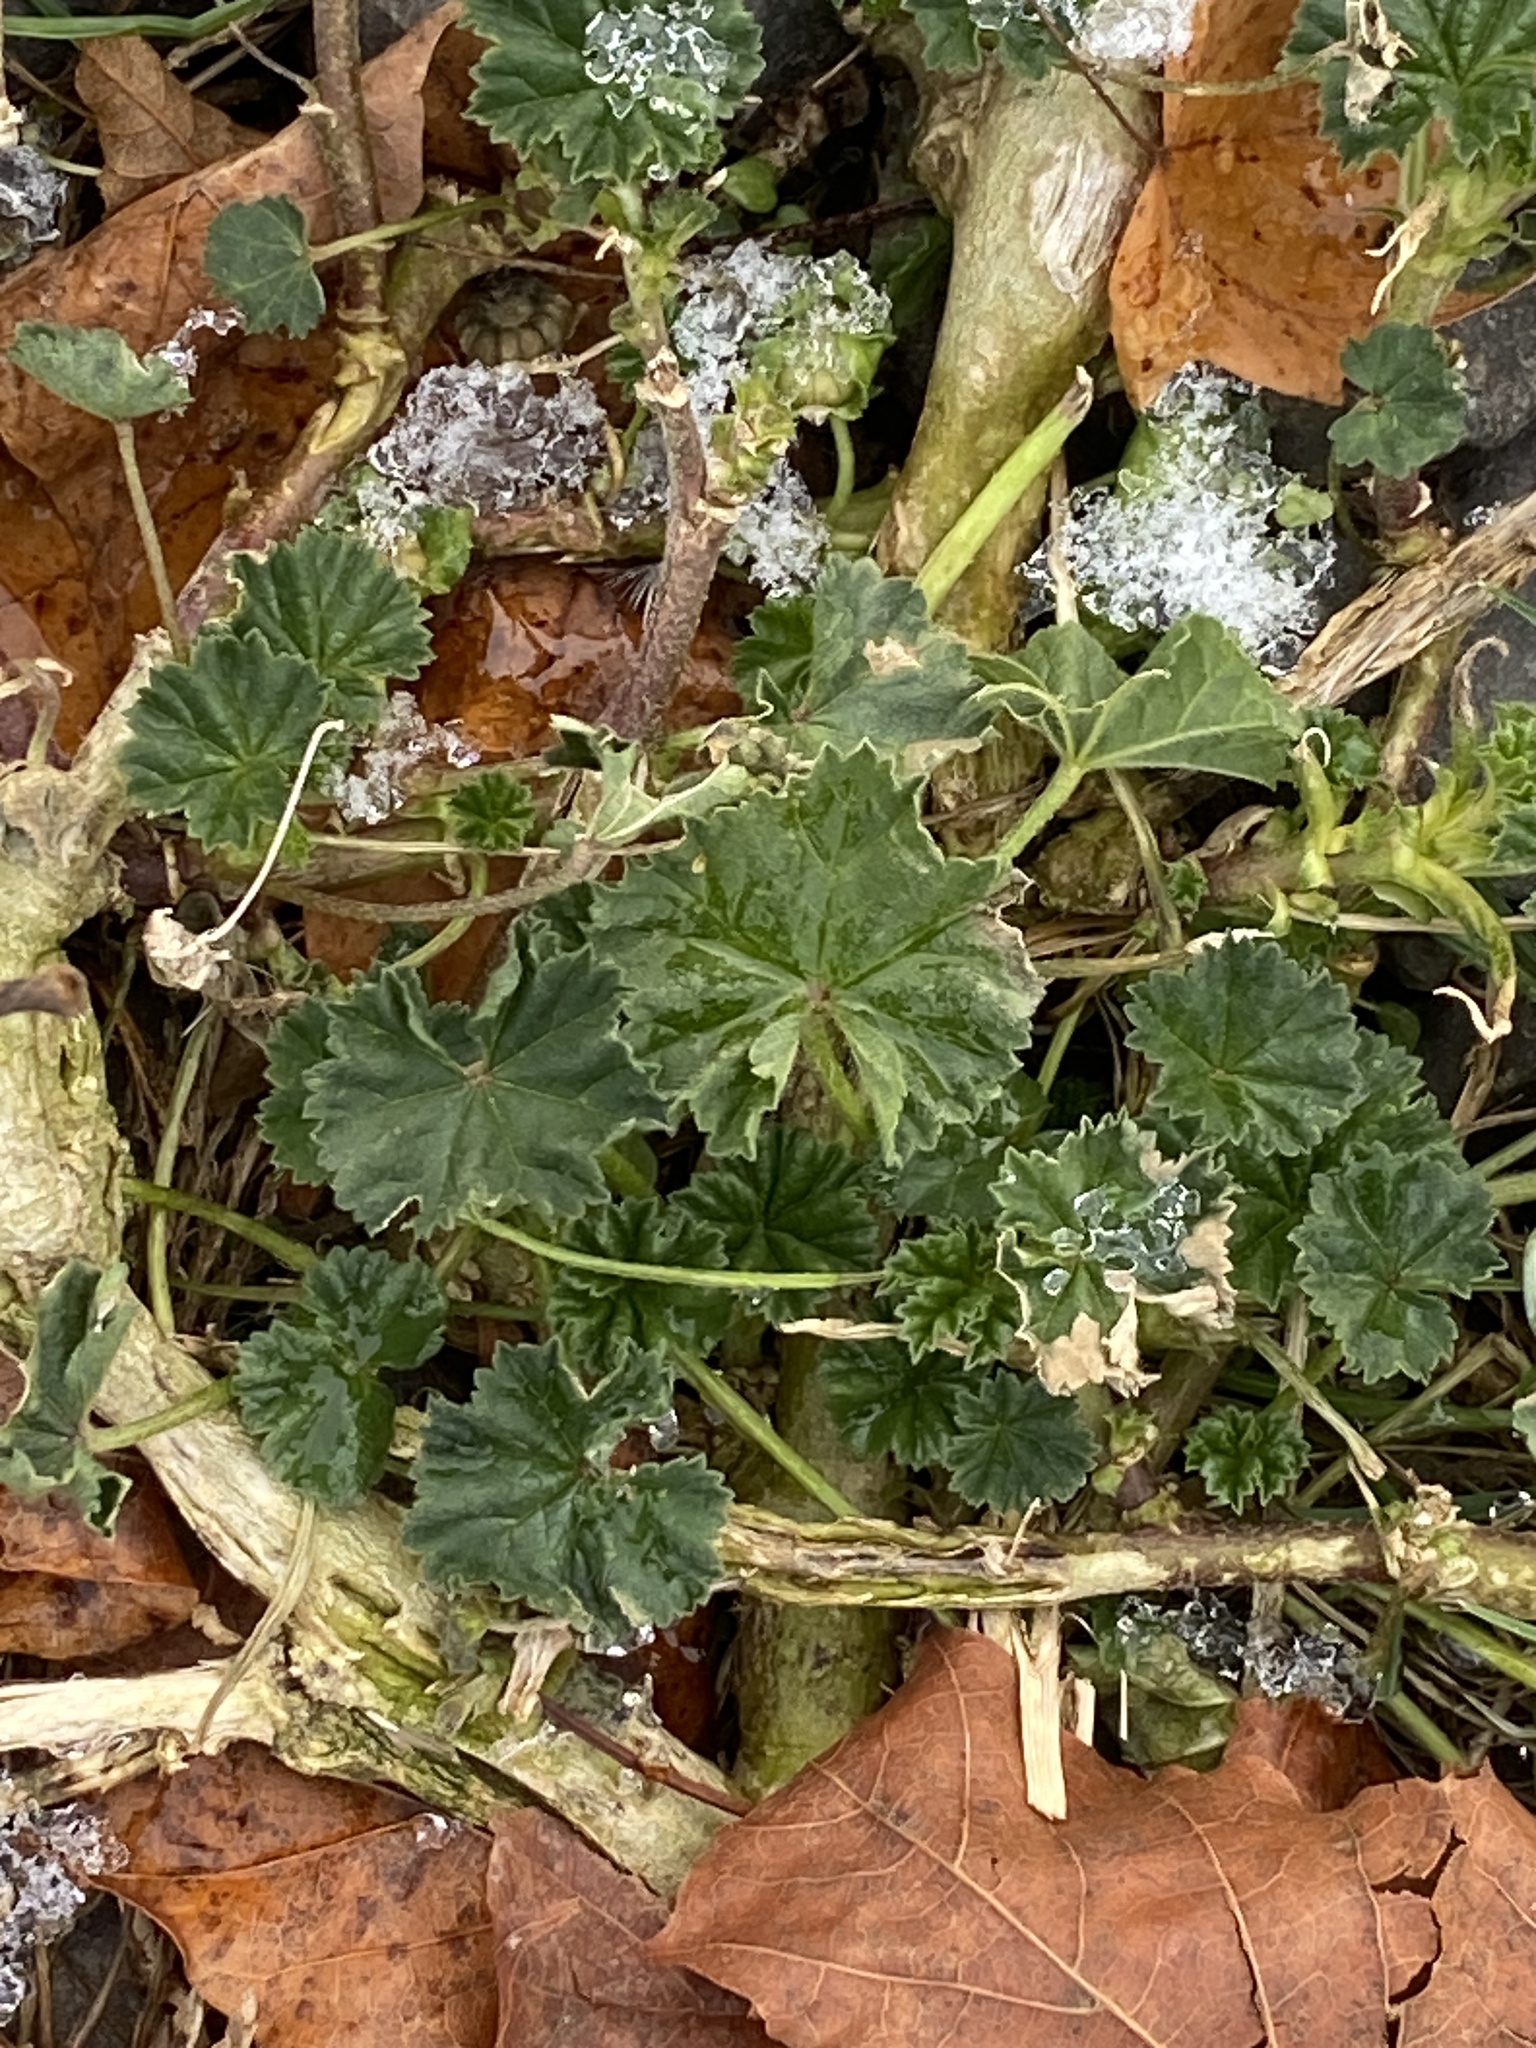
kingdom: Plantae
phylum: Tracheophyta
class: Magnoliopsida
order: Malvales
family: Malvaceae
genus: Malva
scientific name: Malva neglecta
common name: Common mallow
